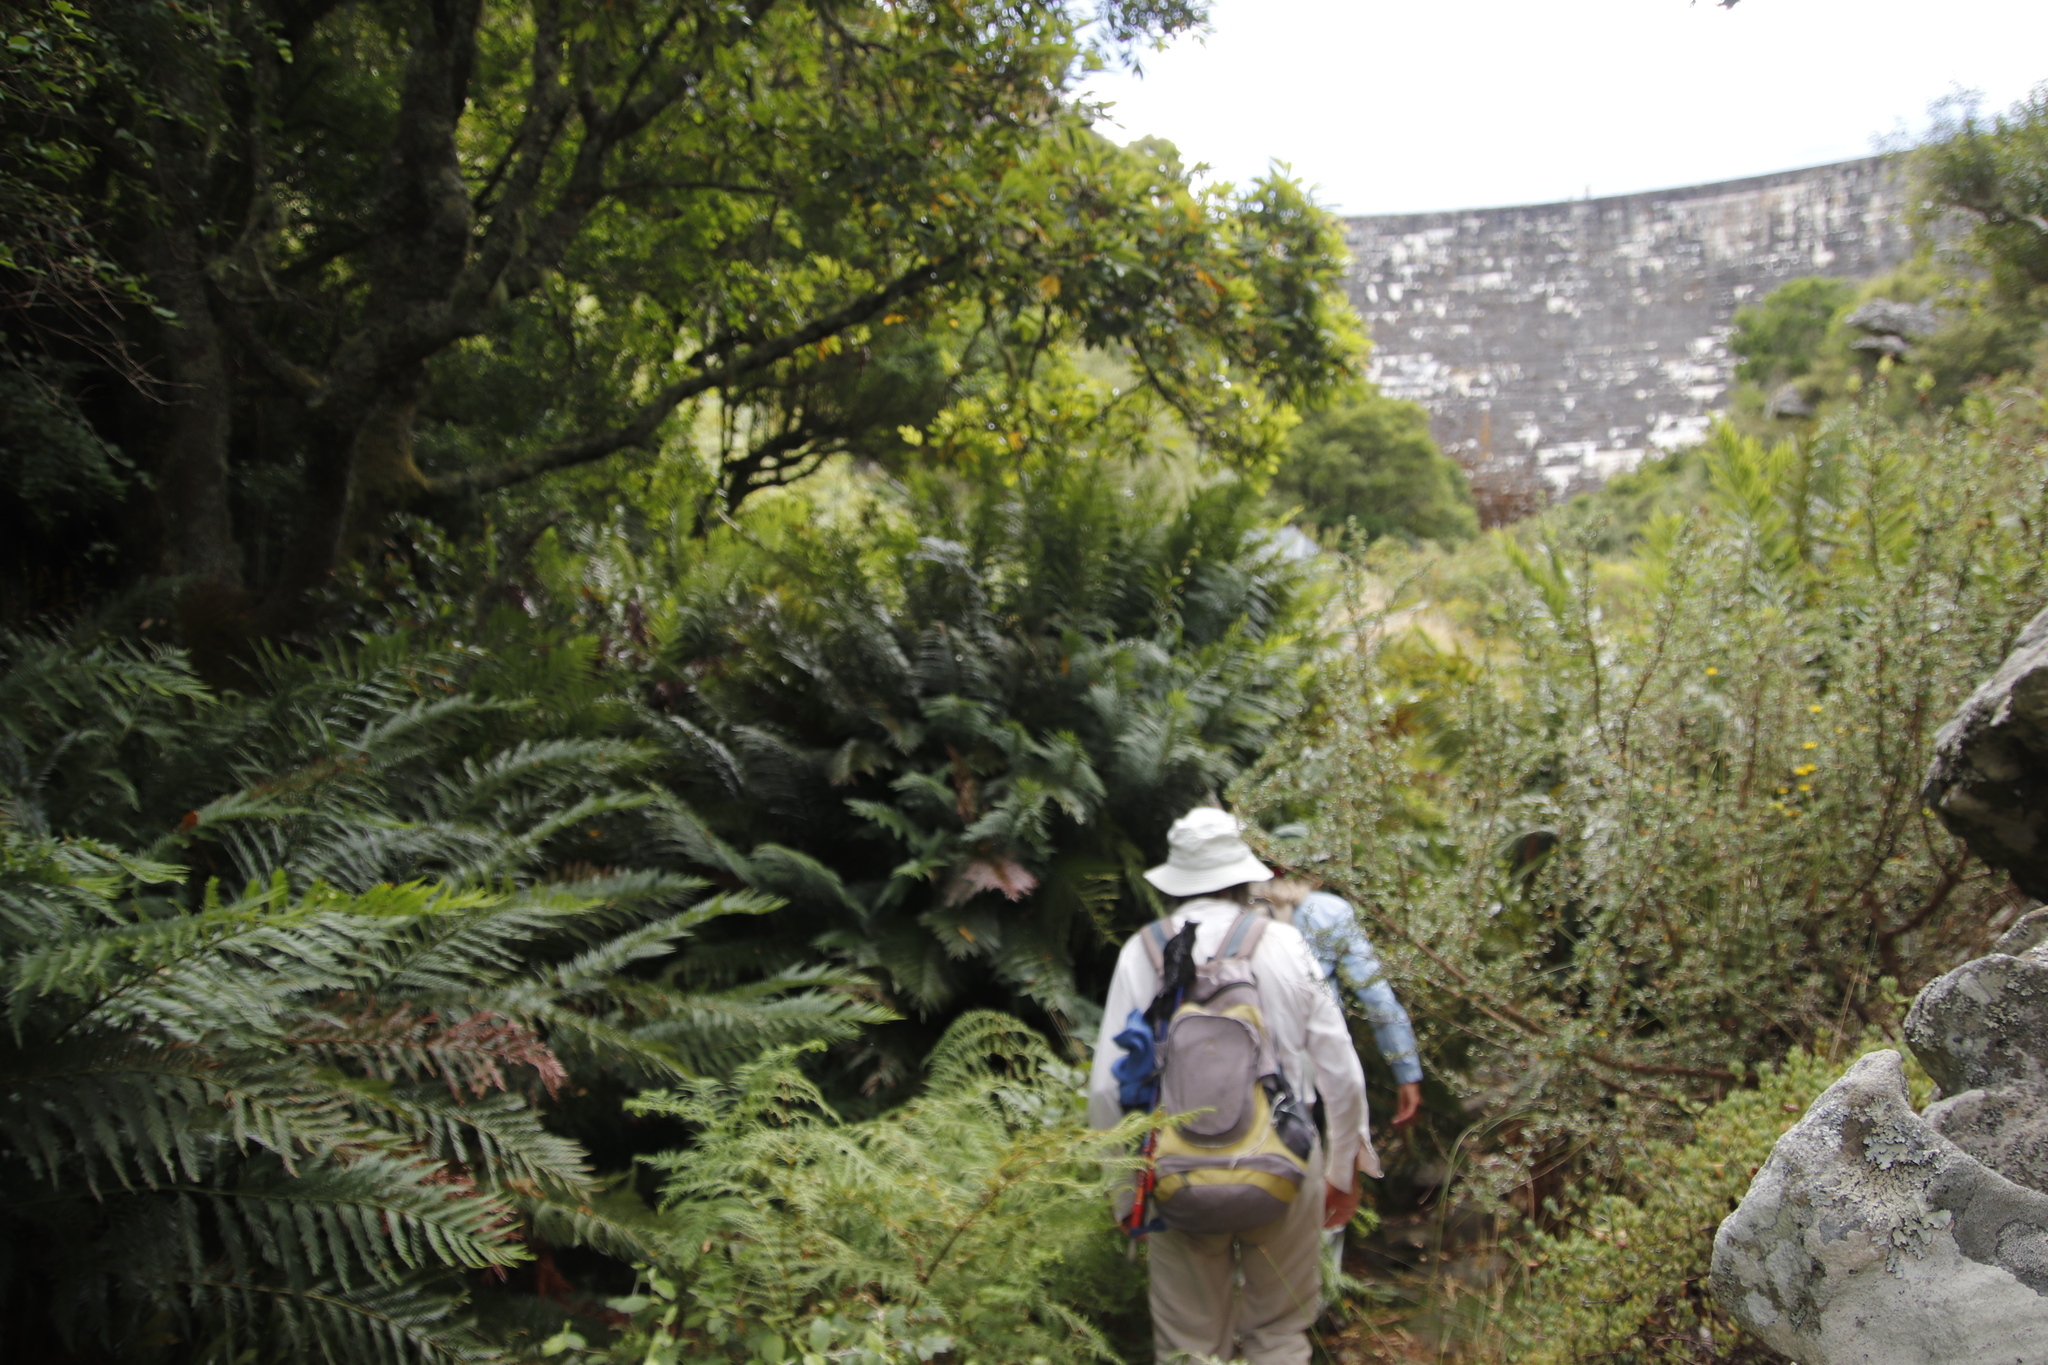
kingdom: Plantae
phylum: Tracheophyta
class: Polypodiopsida
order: Osmundales
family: Osmundaceae
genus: Todea
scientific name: Todea barbara
